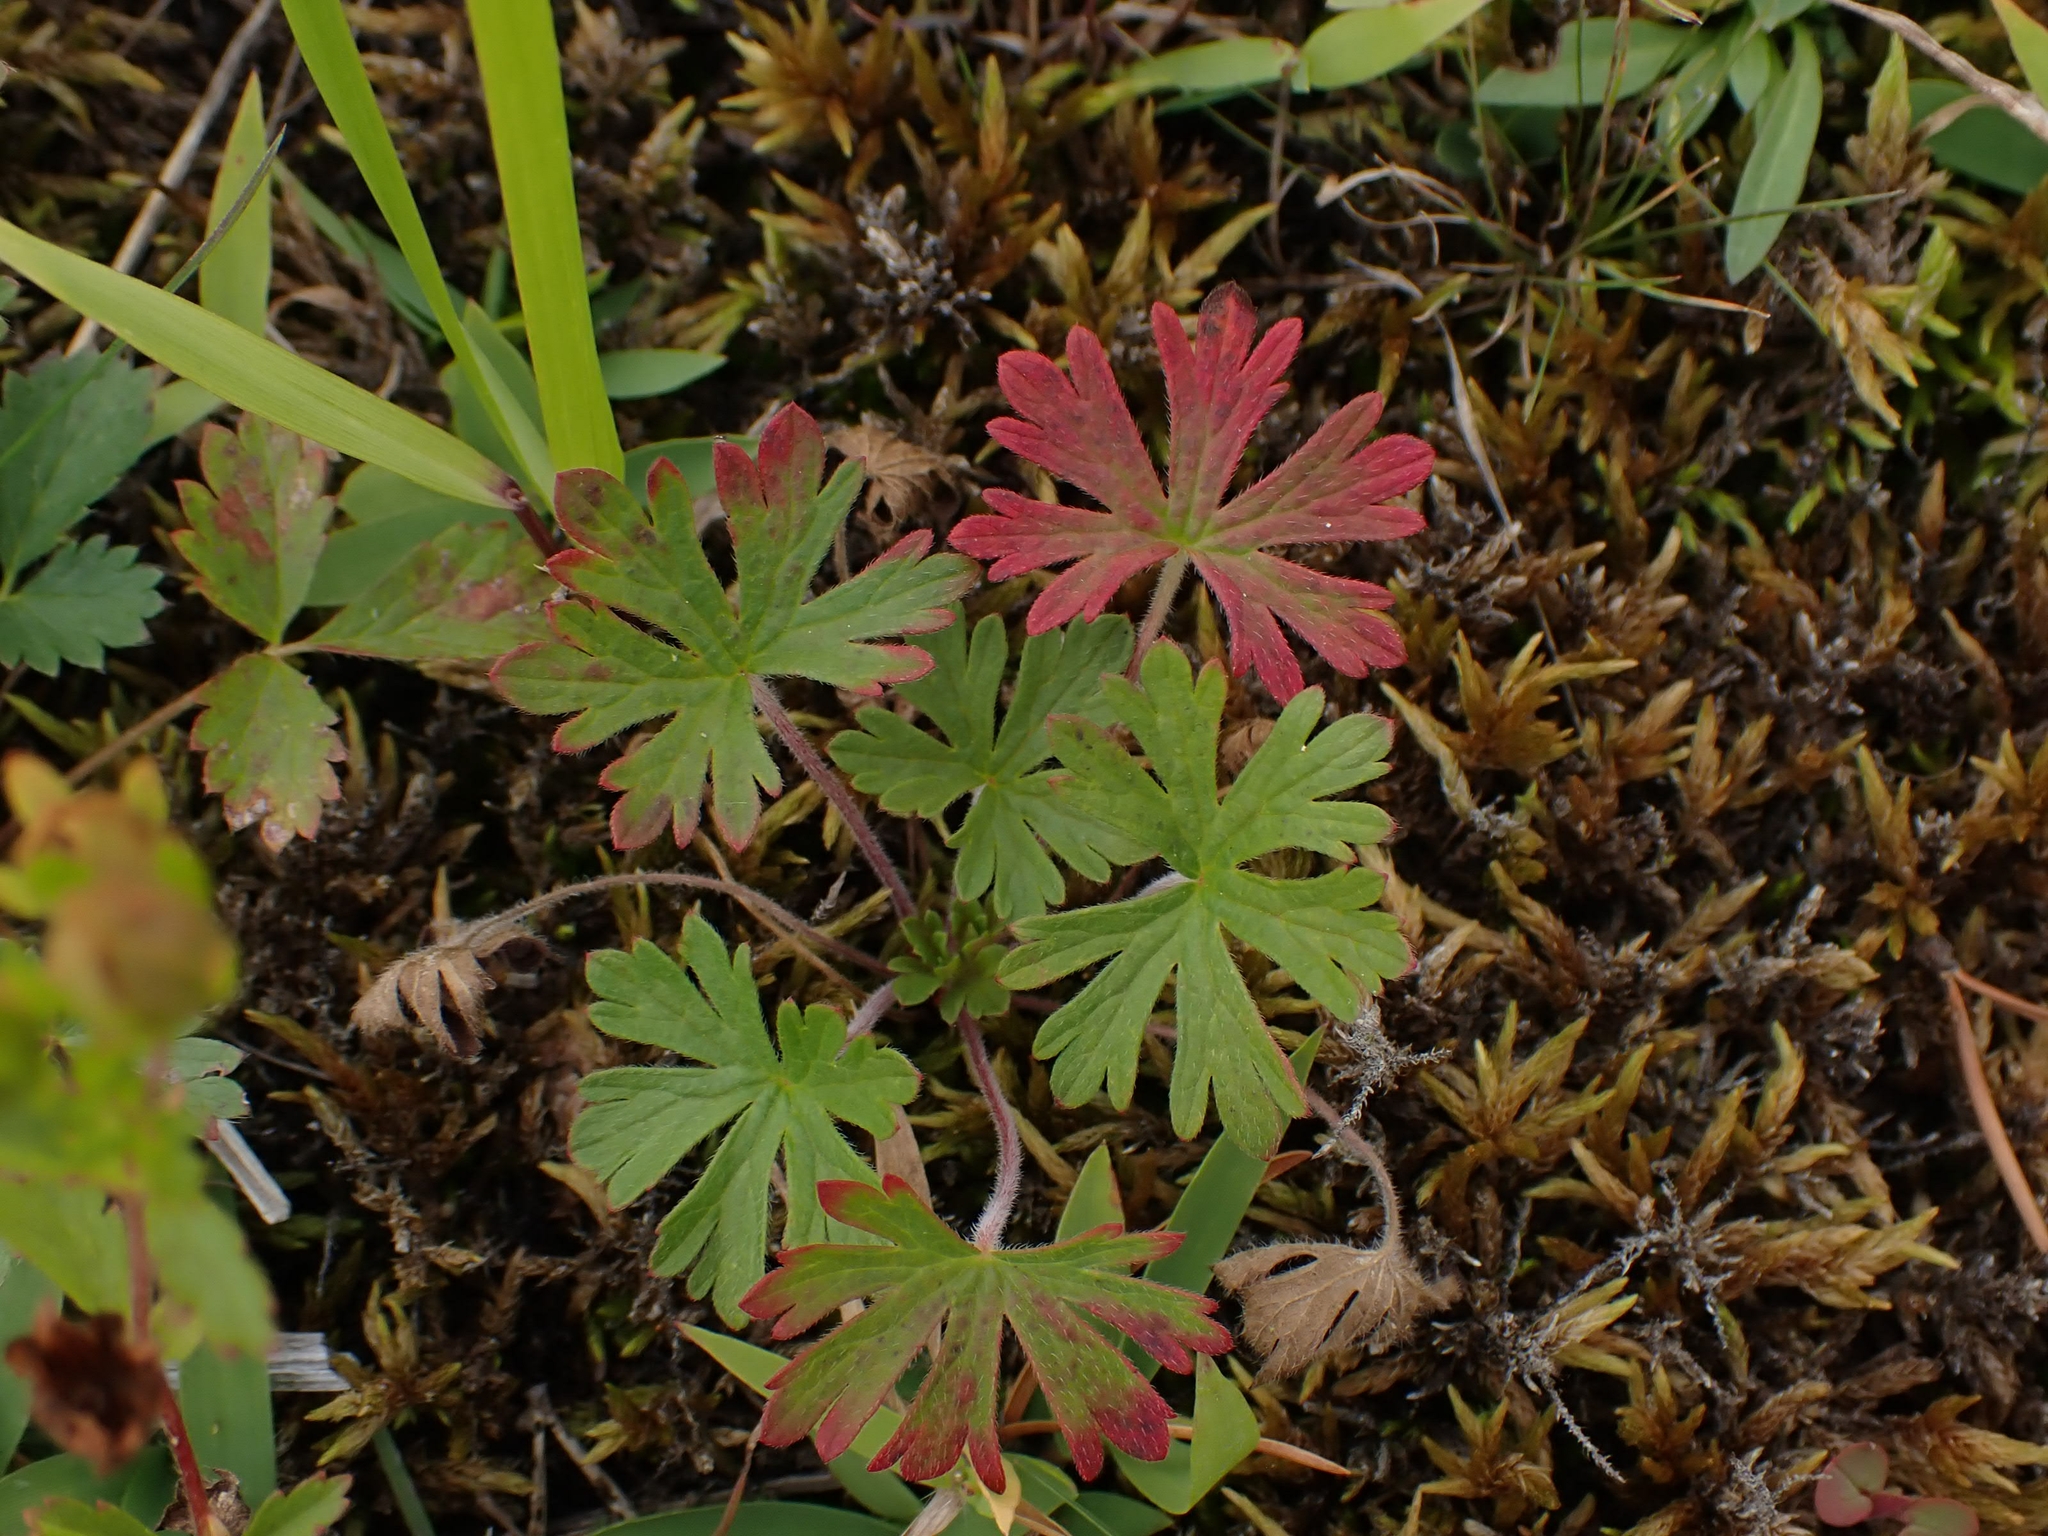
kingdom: Plantae
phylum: Tracheophyta
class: Magnoliopsida
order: Geraniales
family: Geraniaceae
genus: Geranium
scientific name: Geranium bicknellii
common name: Bicknell's cranesbill
